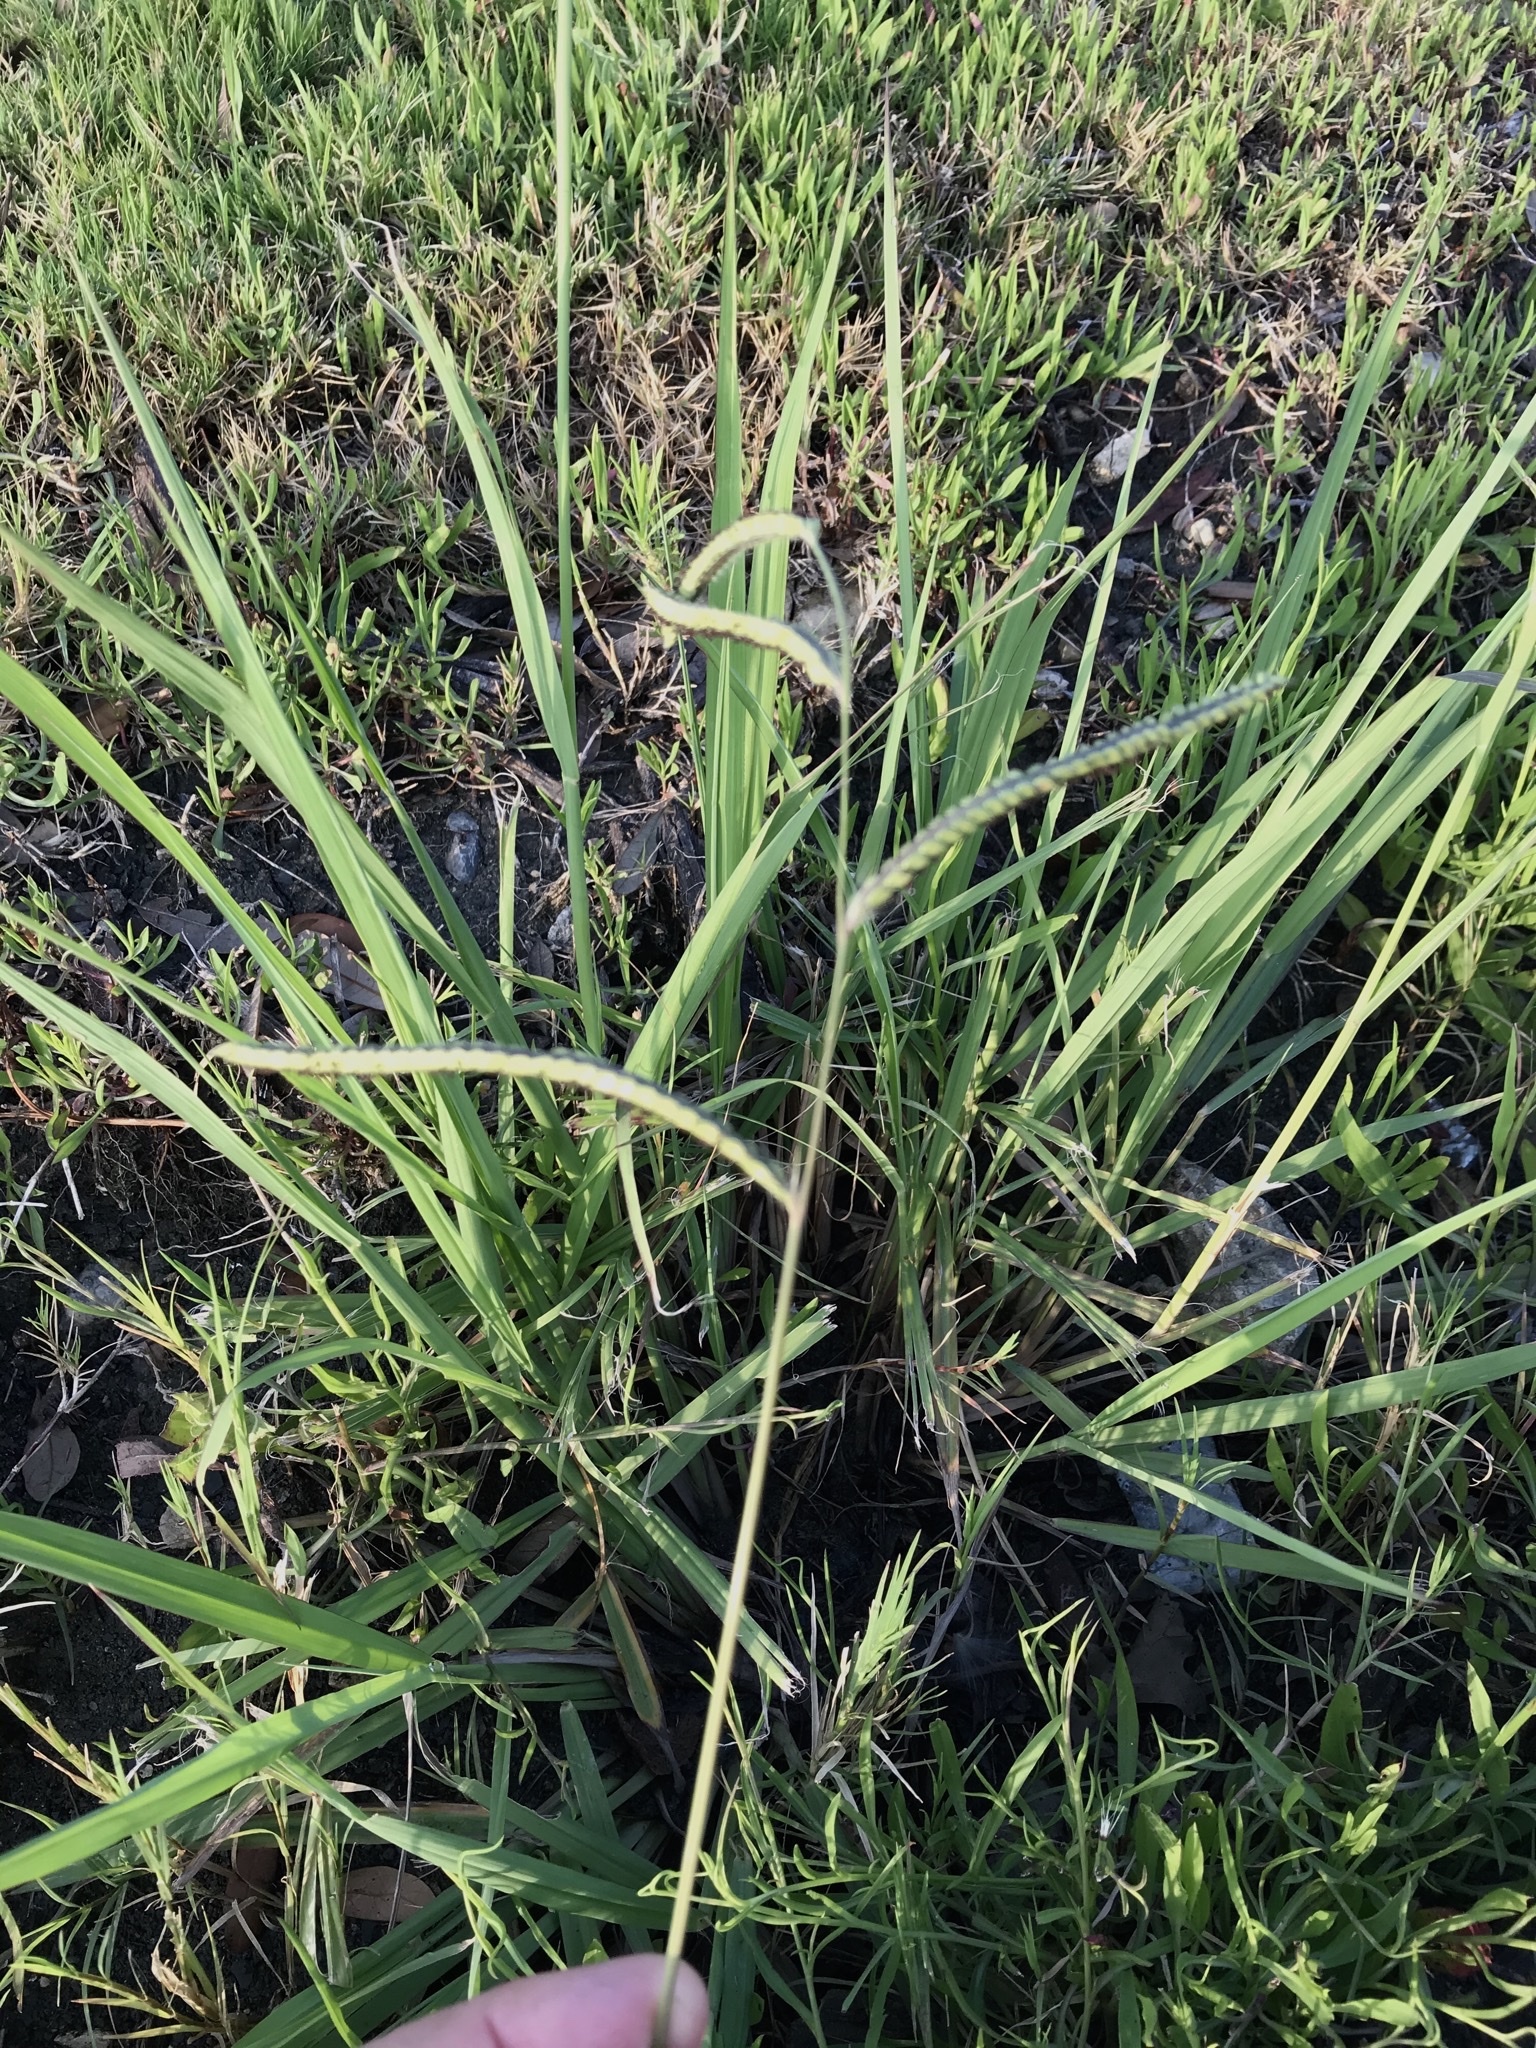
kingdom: Plantae
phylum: Tracheophyta
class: Liliopsida
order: Poales
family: Poaceae
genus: Paspalum
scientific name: Paspalum dilatatum
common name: Dallisgrass
